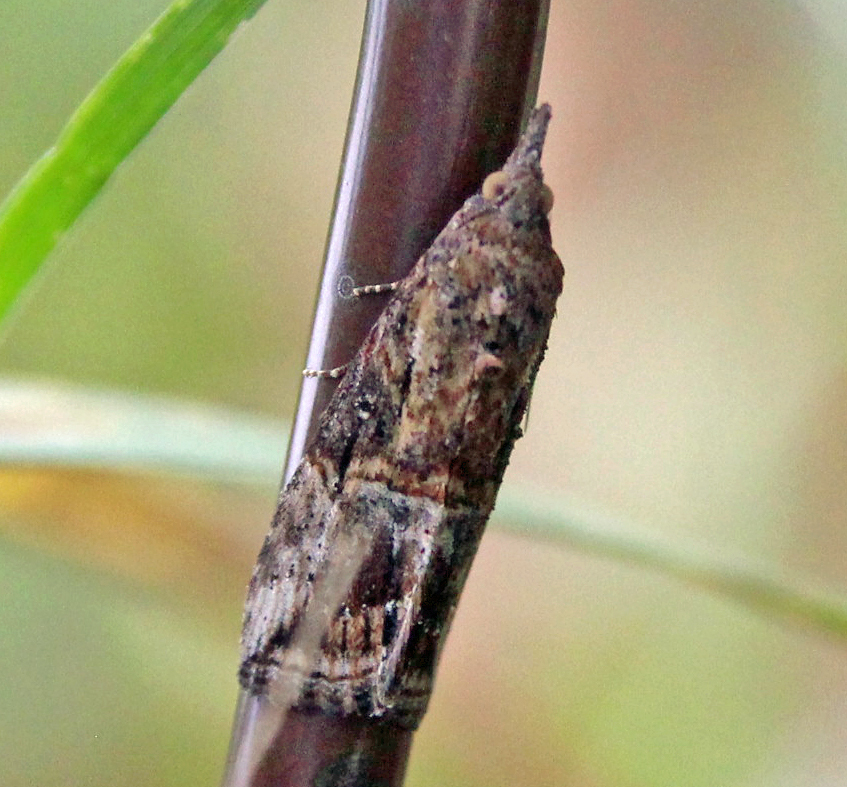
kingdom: Animalia
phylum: Arthropoda
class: Insecta
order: Lepidoptera
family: Erebidae
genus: Hypena
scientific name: Hypena scabra
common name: Green cloverworm
